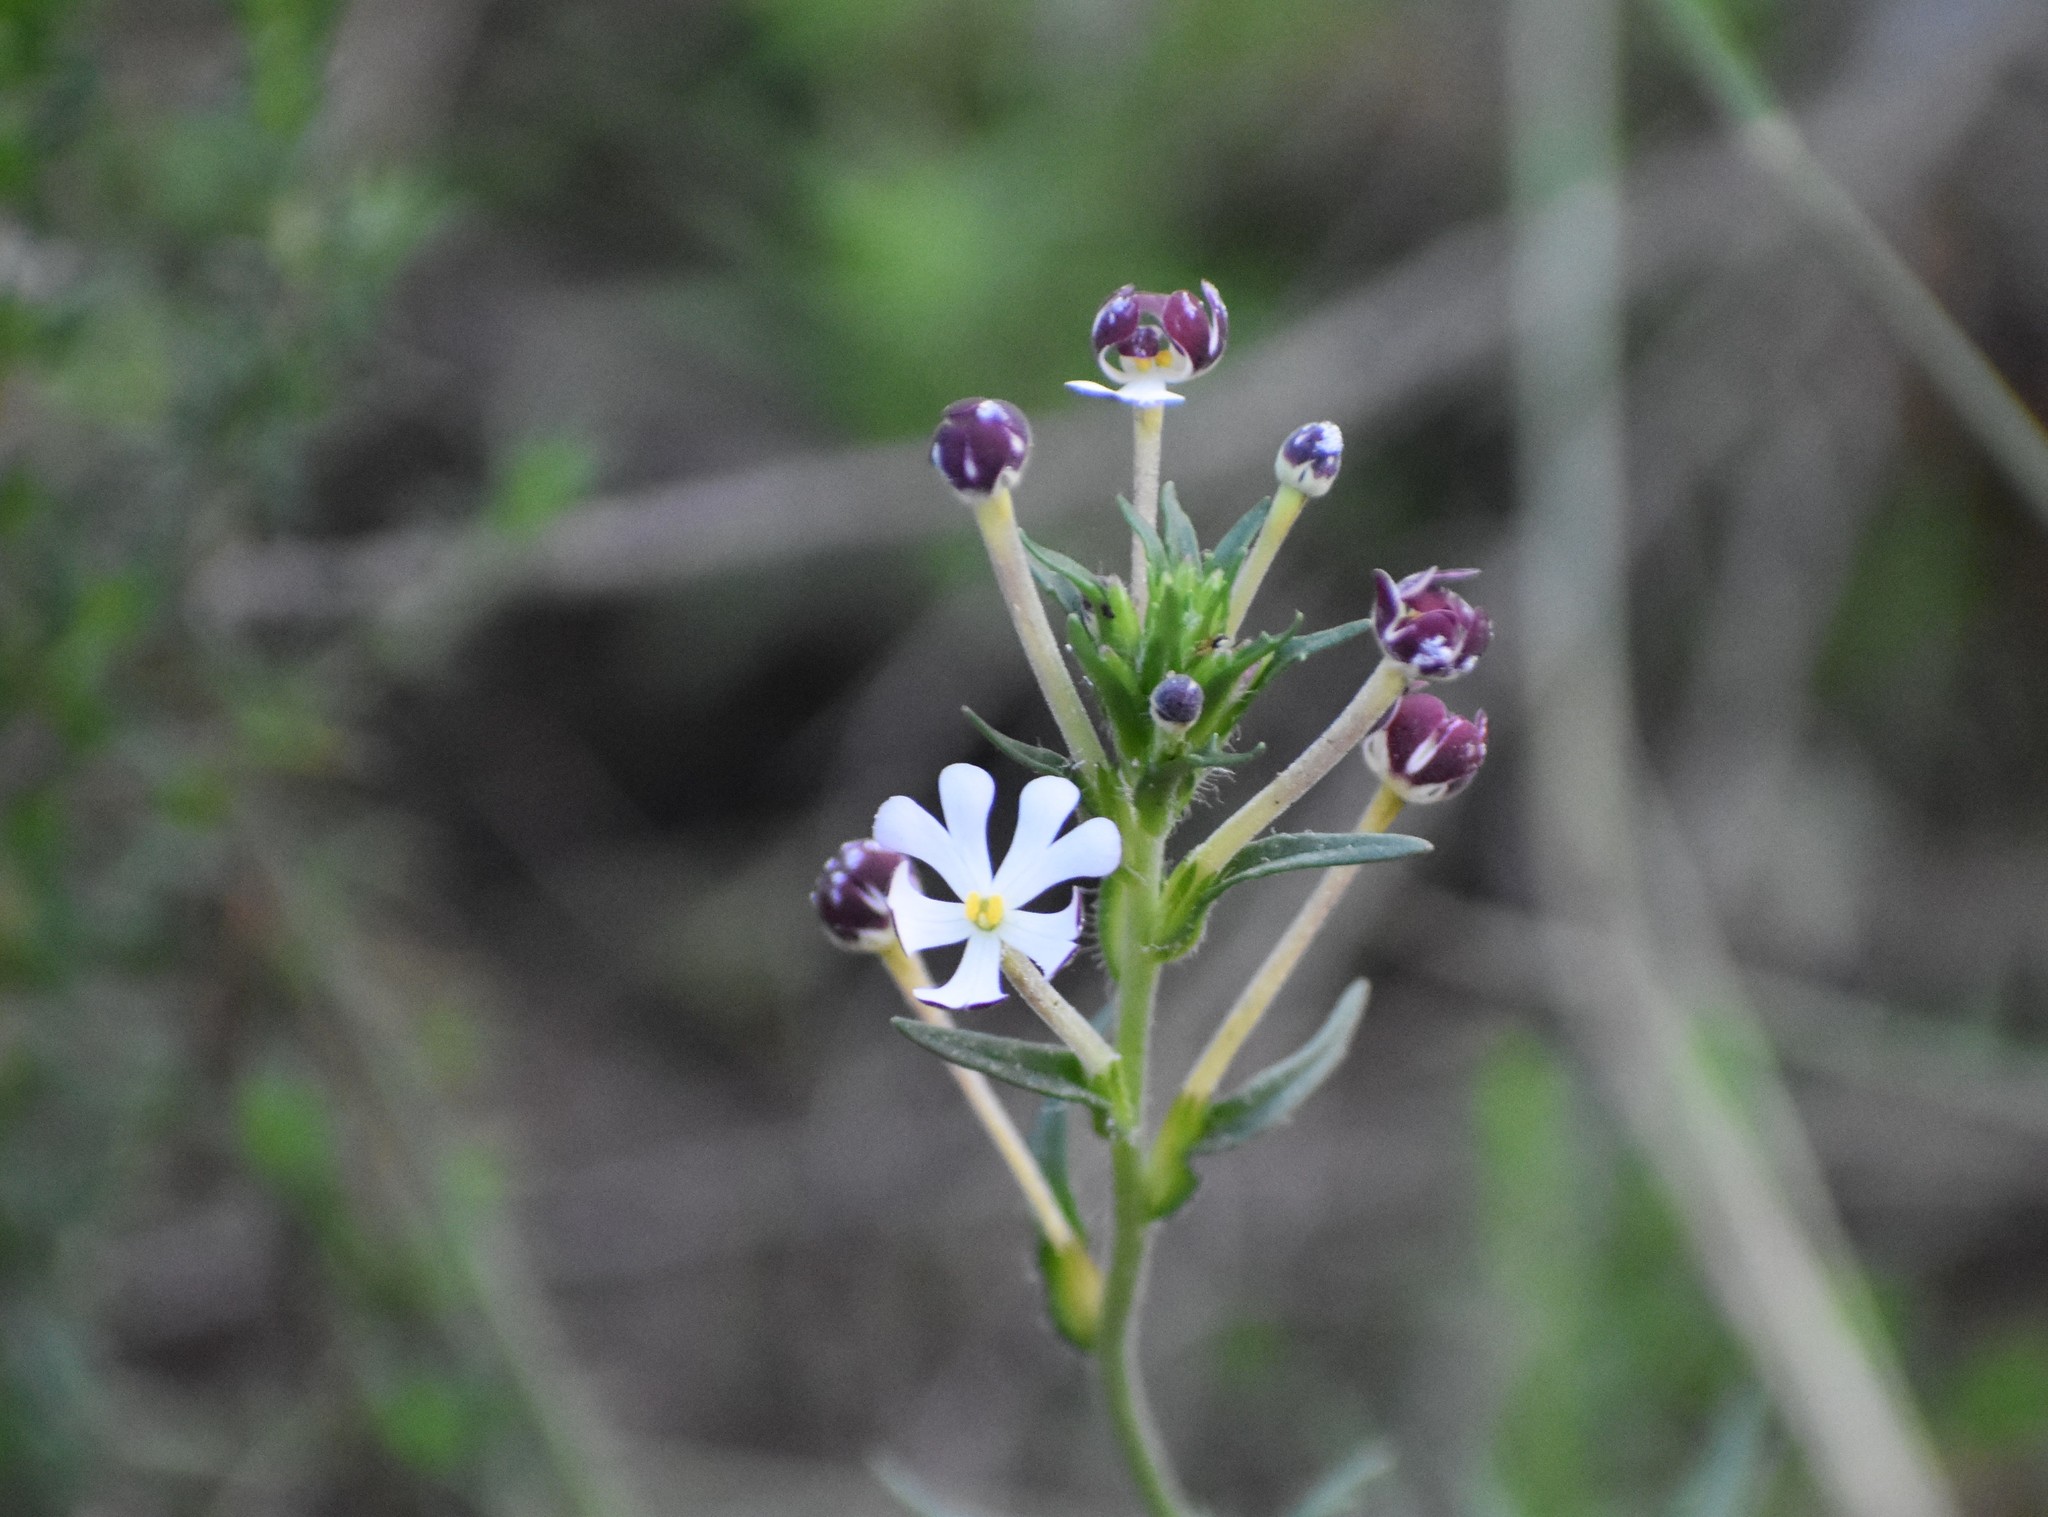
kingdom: Plantae
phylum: Tracheophyta
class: Magnoliopsida
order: Lamiales
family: Scrophulariaceae
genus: Zaluzianskya
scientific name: Zaluzianskya capensis
